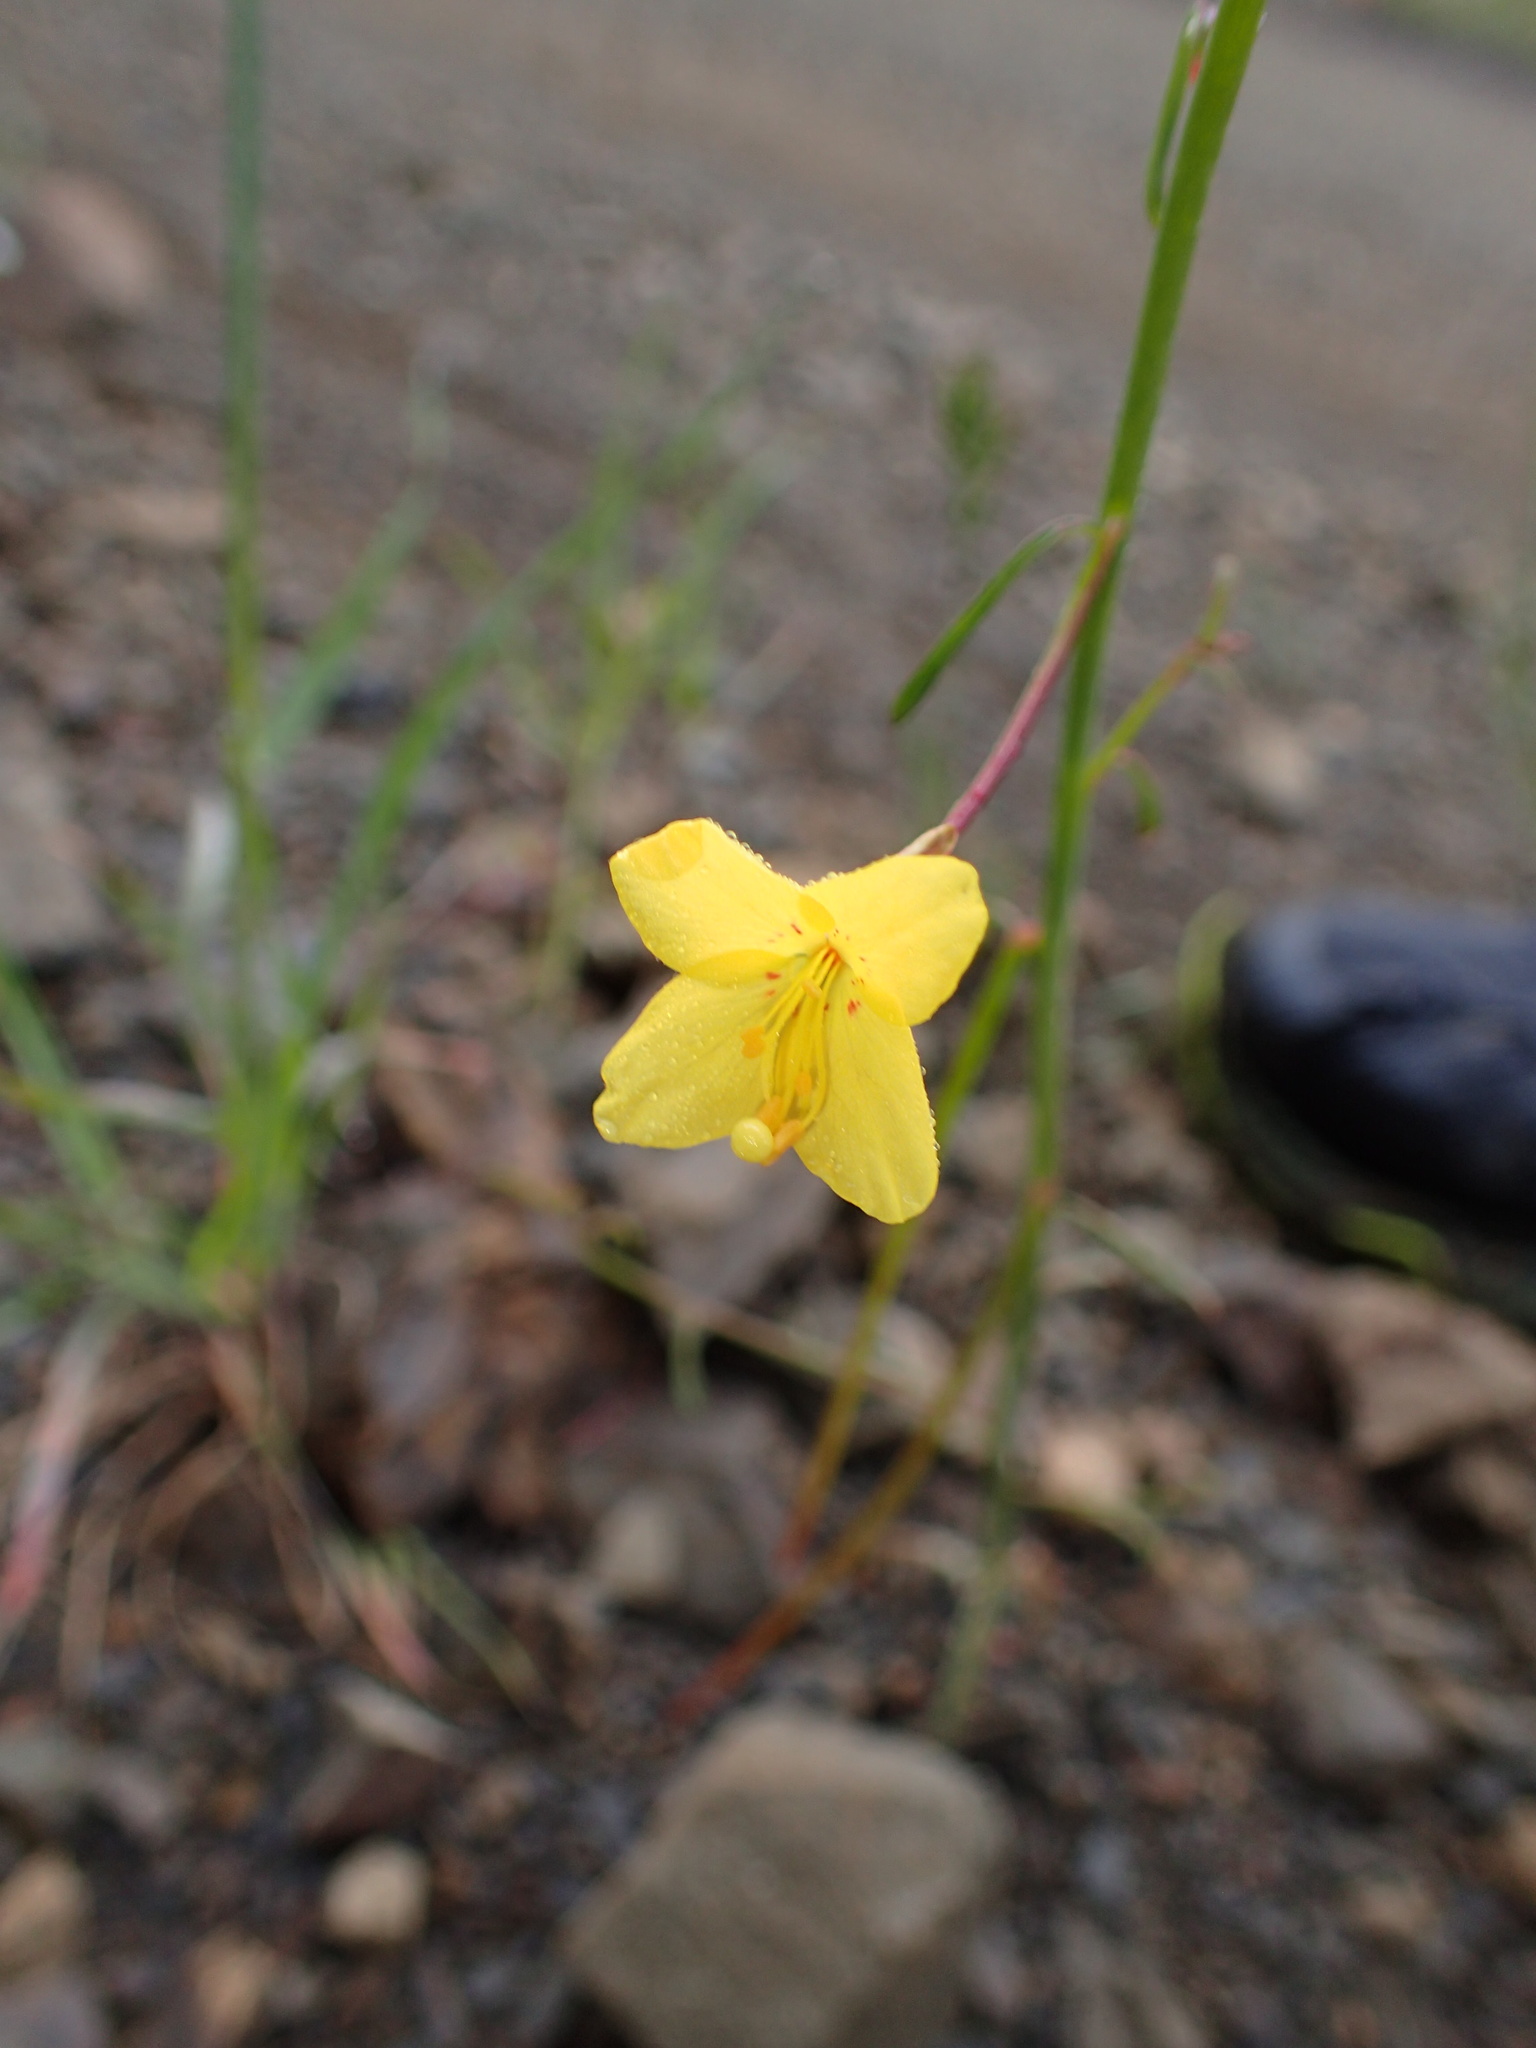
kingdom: Plantae
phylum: Tracheophyta
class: Magnoliopsida
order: Myrtales
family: Onagraceae
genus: Eulobus
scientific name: Eulobus californicus
